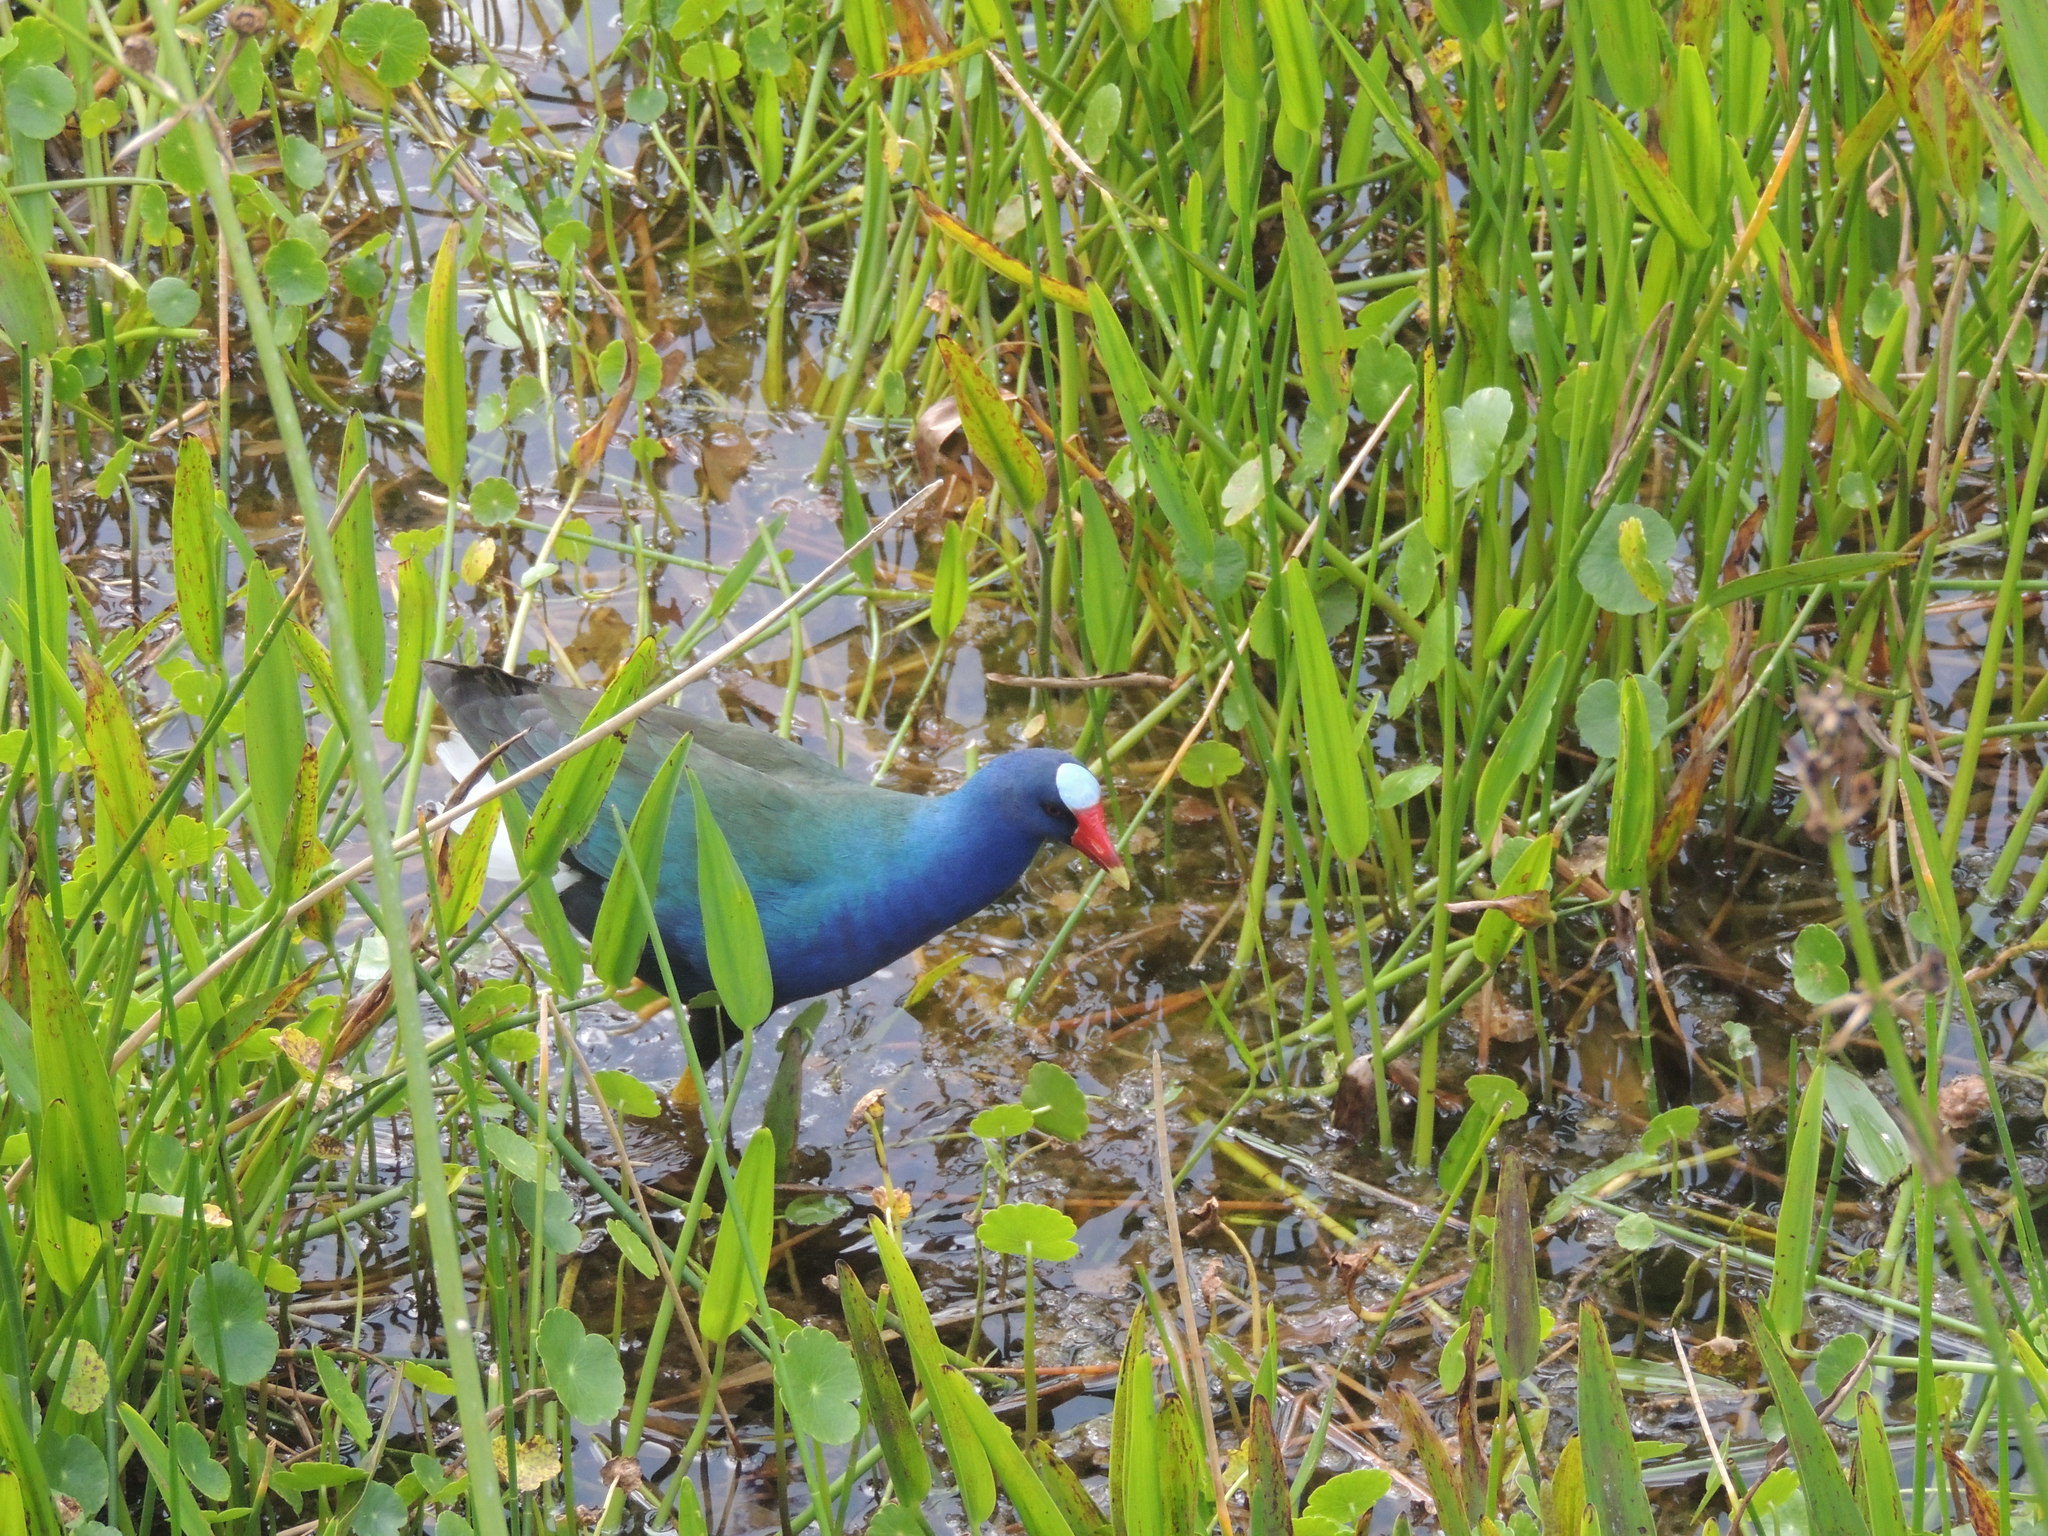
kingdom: Animalia
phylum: Chordata
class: Aves
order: Gruiformes
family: Rallidae
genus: Porphyrio
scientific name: Porphyrio martinica
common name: Purple gallinule
